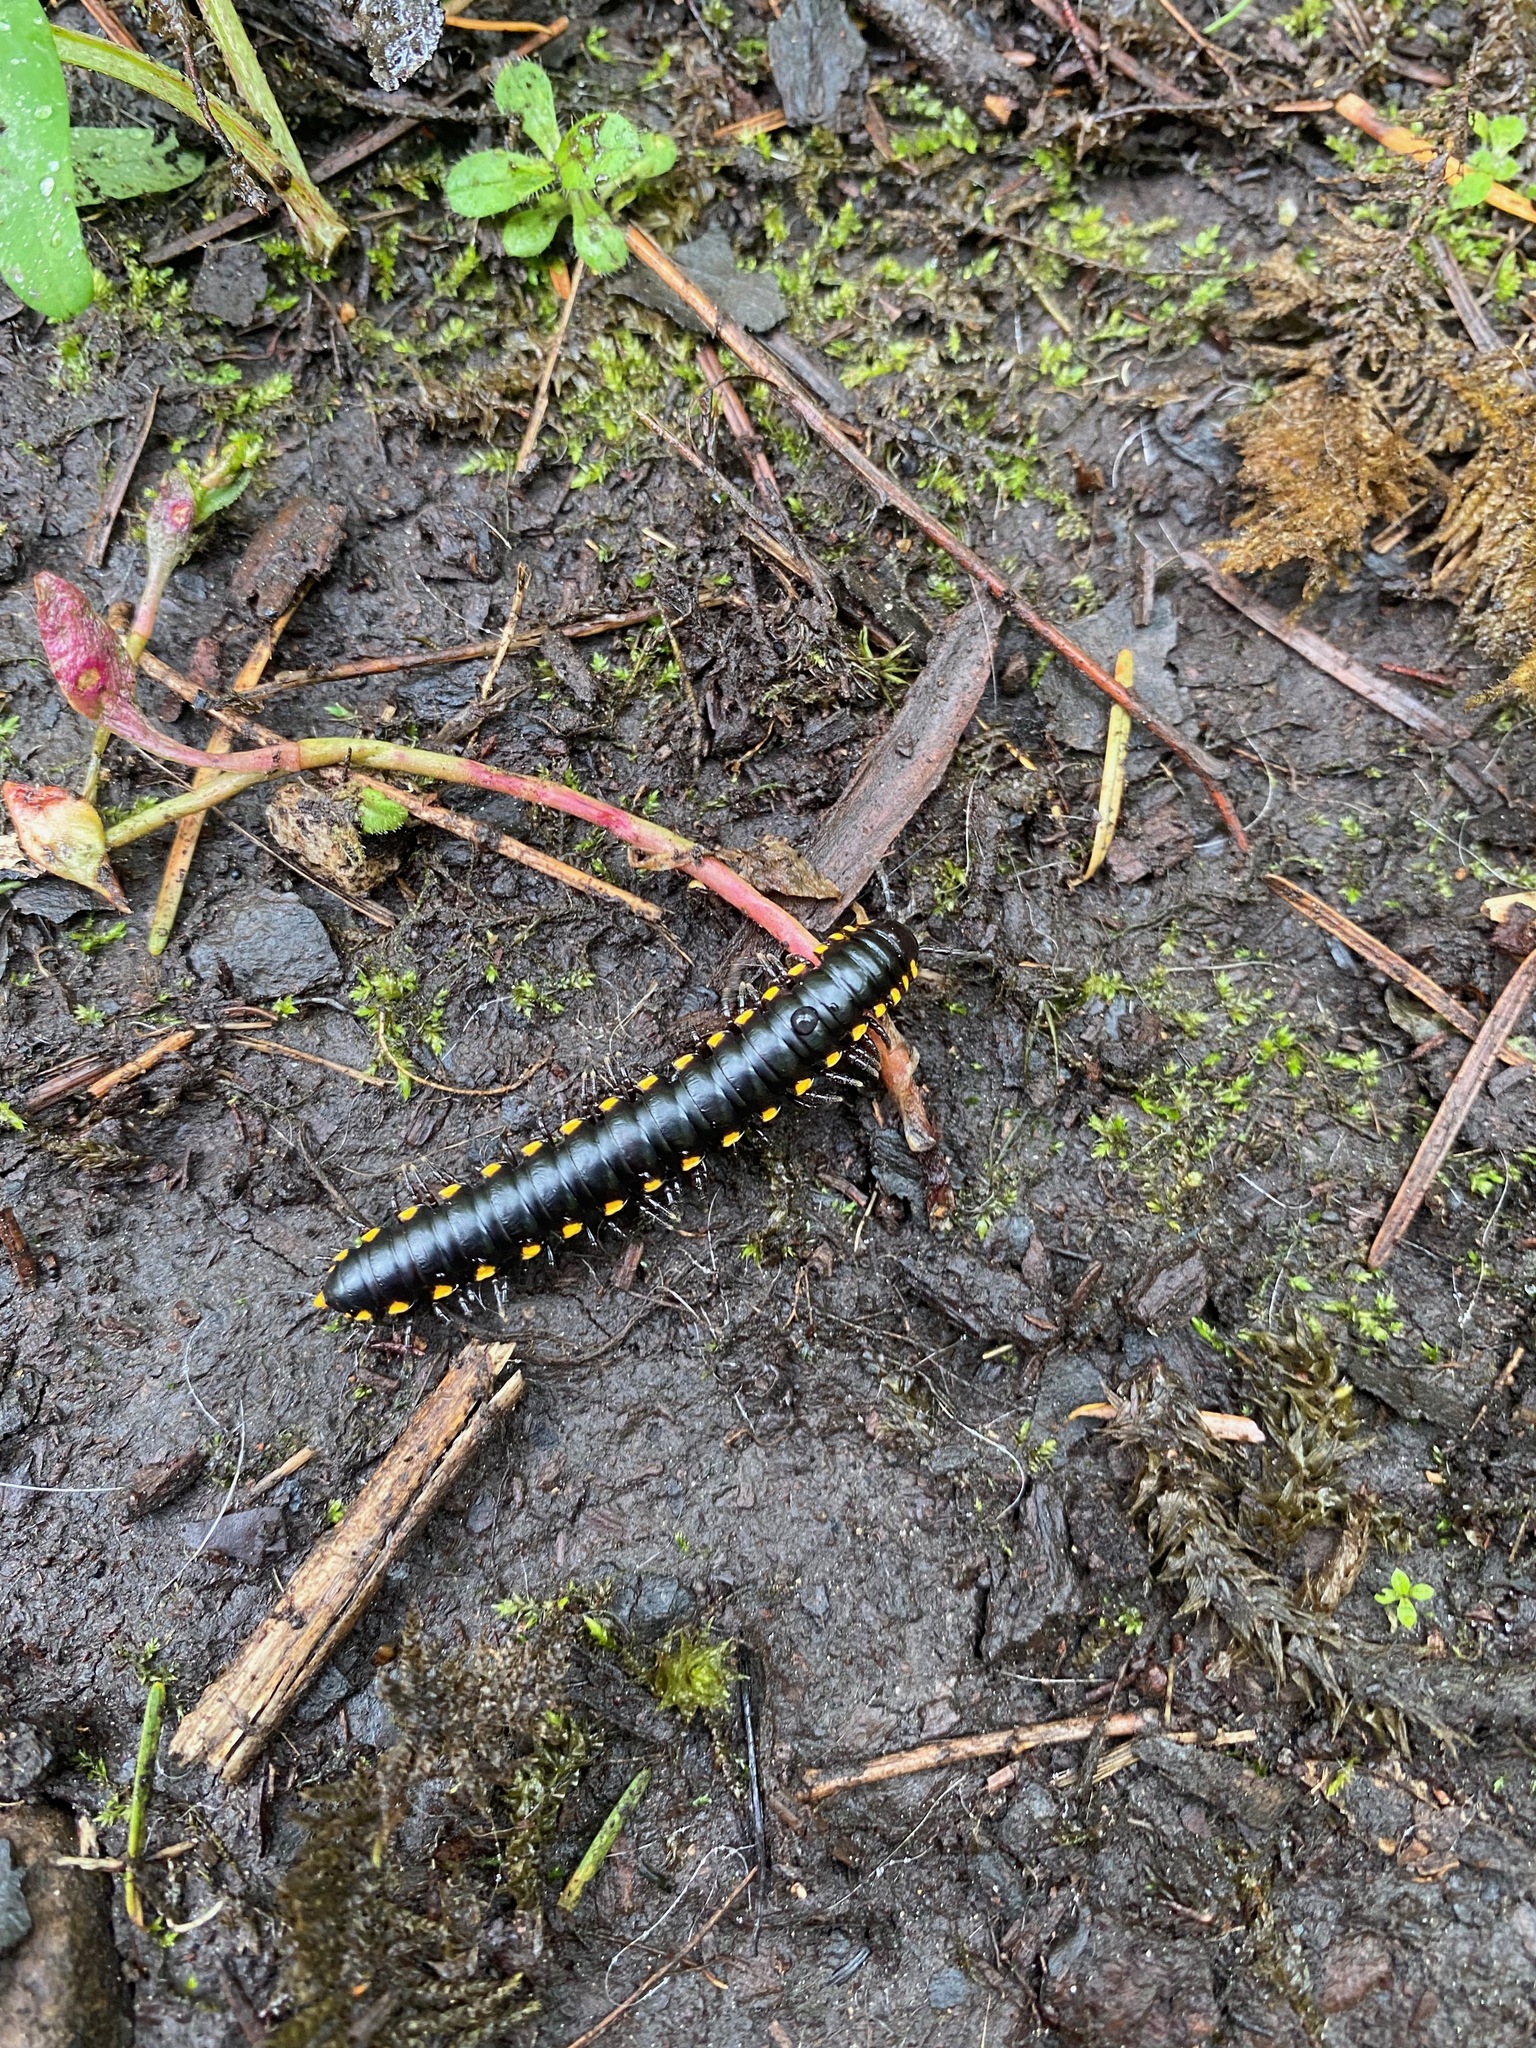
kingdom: Animalia
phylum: Arthropoda
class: Diplopoda
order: Polydesmida
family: Xystodesmidae
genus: Harpaphe
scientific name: Harpaphe haydeniana
